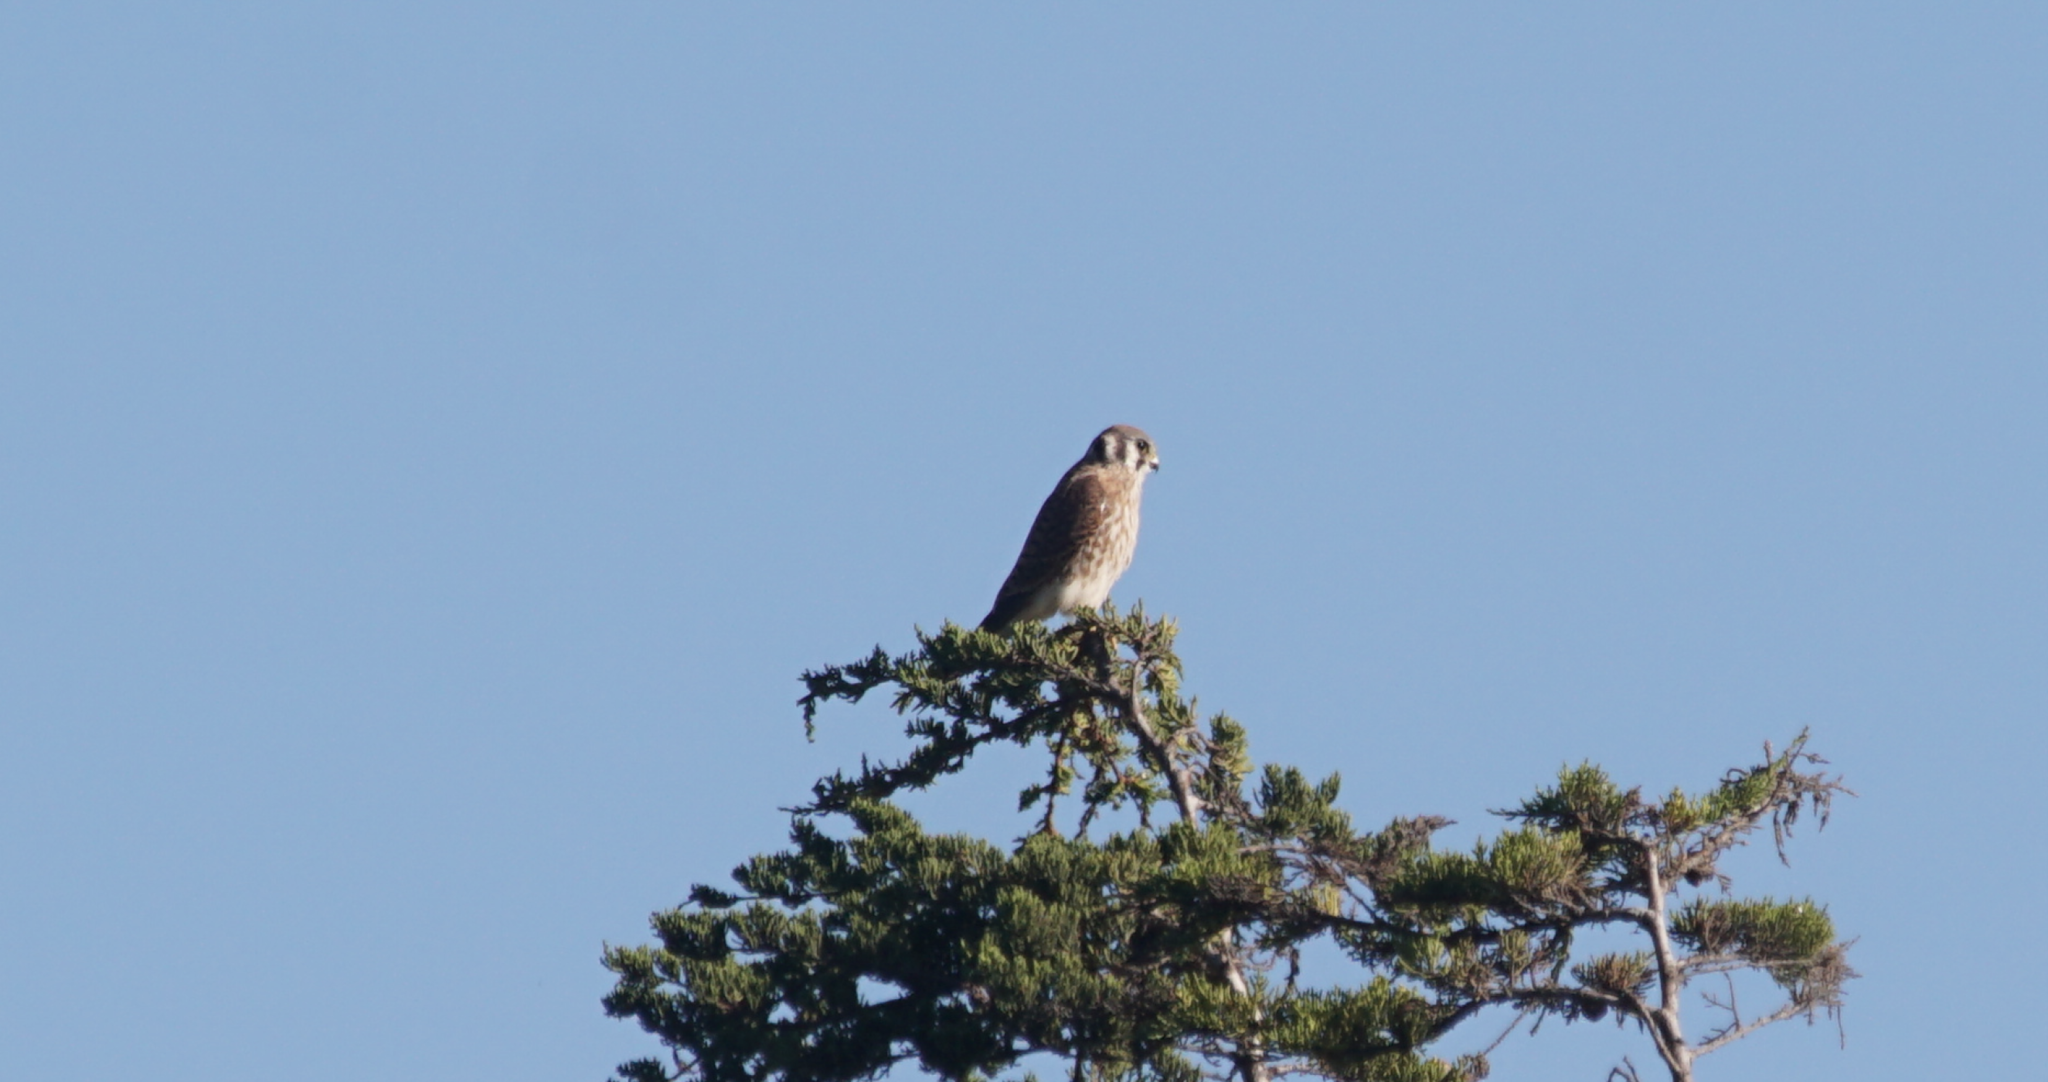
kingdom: Animalia
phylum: Chordata
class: Aves
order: Falconiformes
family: Falconidae
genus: Falco
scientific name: Falco sparverius
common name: American kestrel
